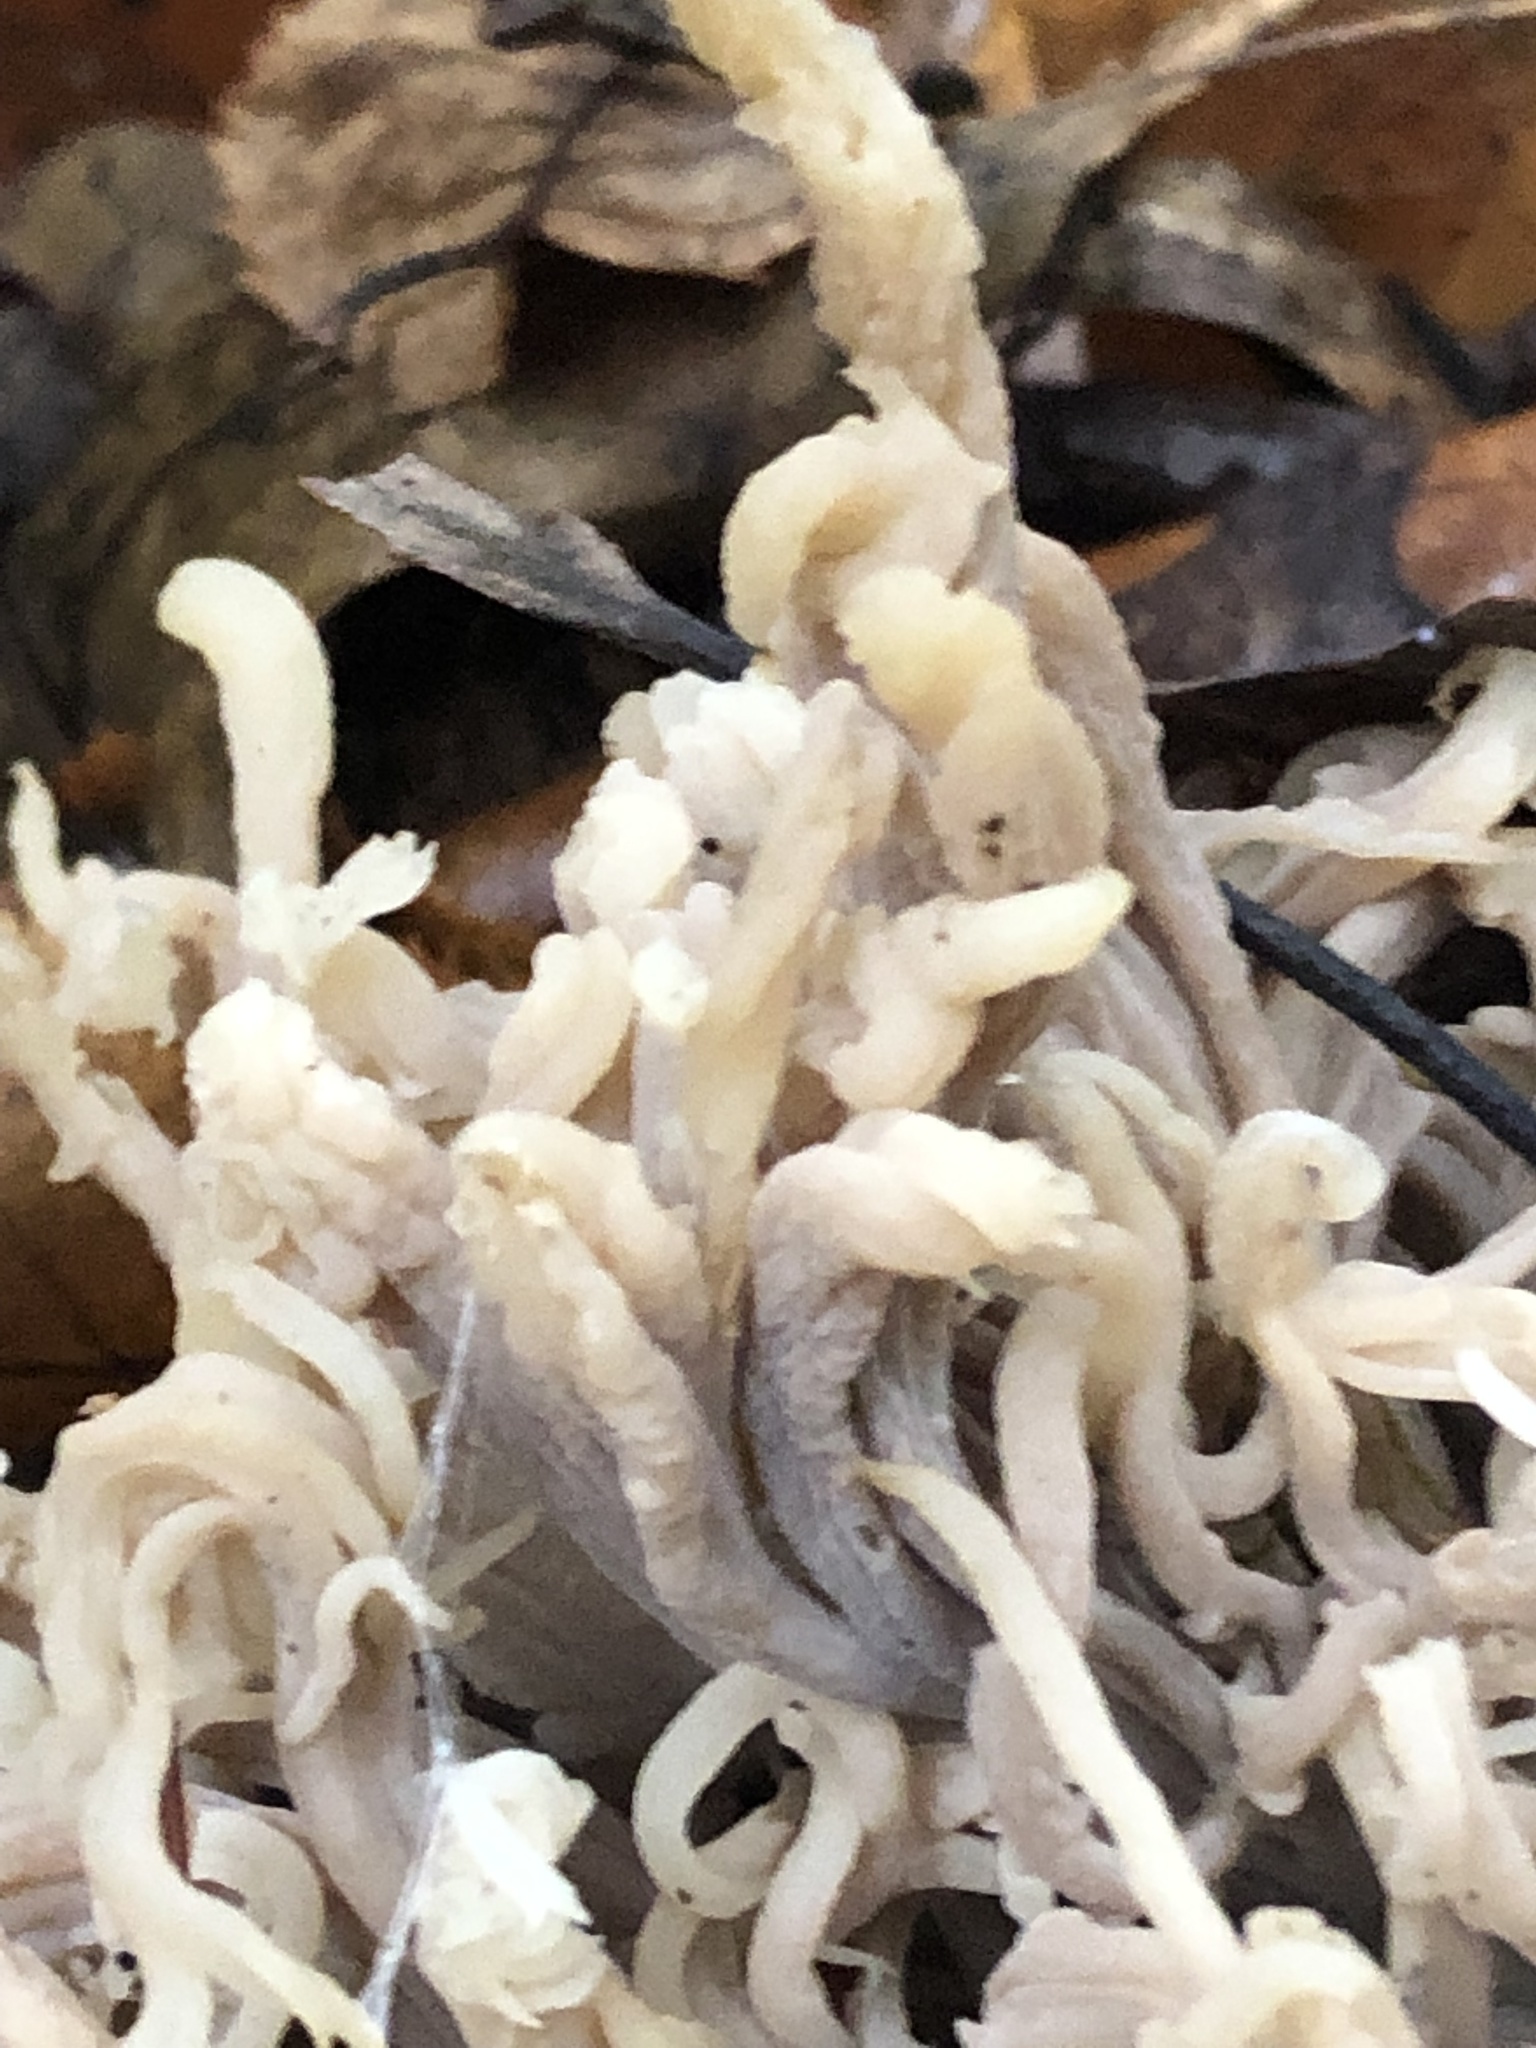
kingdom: Fungi
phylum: Basidiomycota
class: Agaricomycetes
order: Cantharellales
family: Hydnaceae
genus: Clavulina
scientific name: Clavulina coralloides
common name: Crested coral
